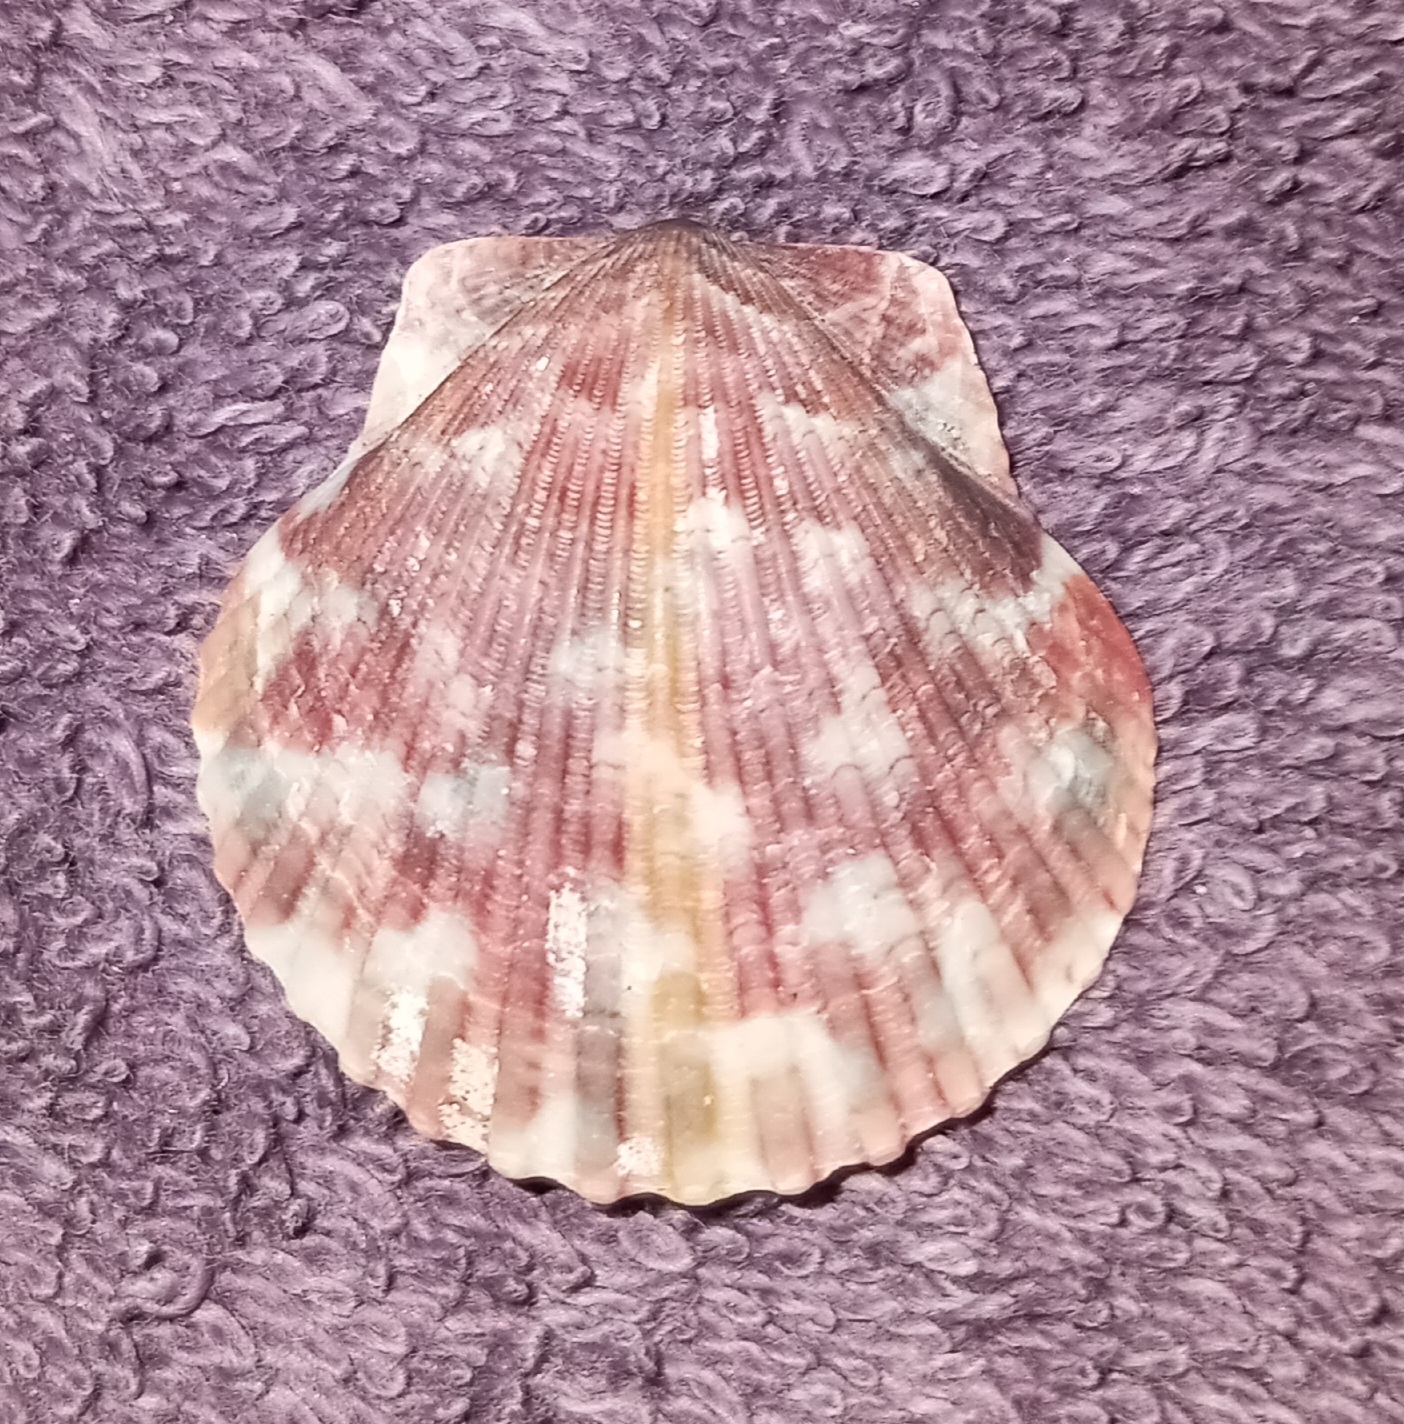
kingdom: Animalia
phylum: Mollusca
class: Bivalvia
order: Pectinida
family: Pectinidae
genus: Argopecten
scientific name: Argopecten gibbus
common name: Atlantic calico scallop
